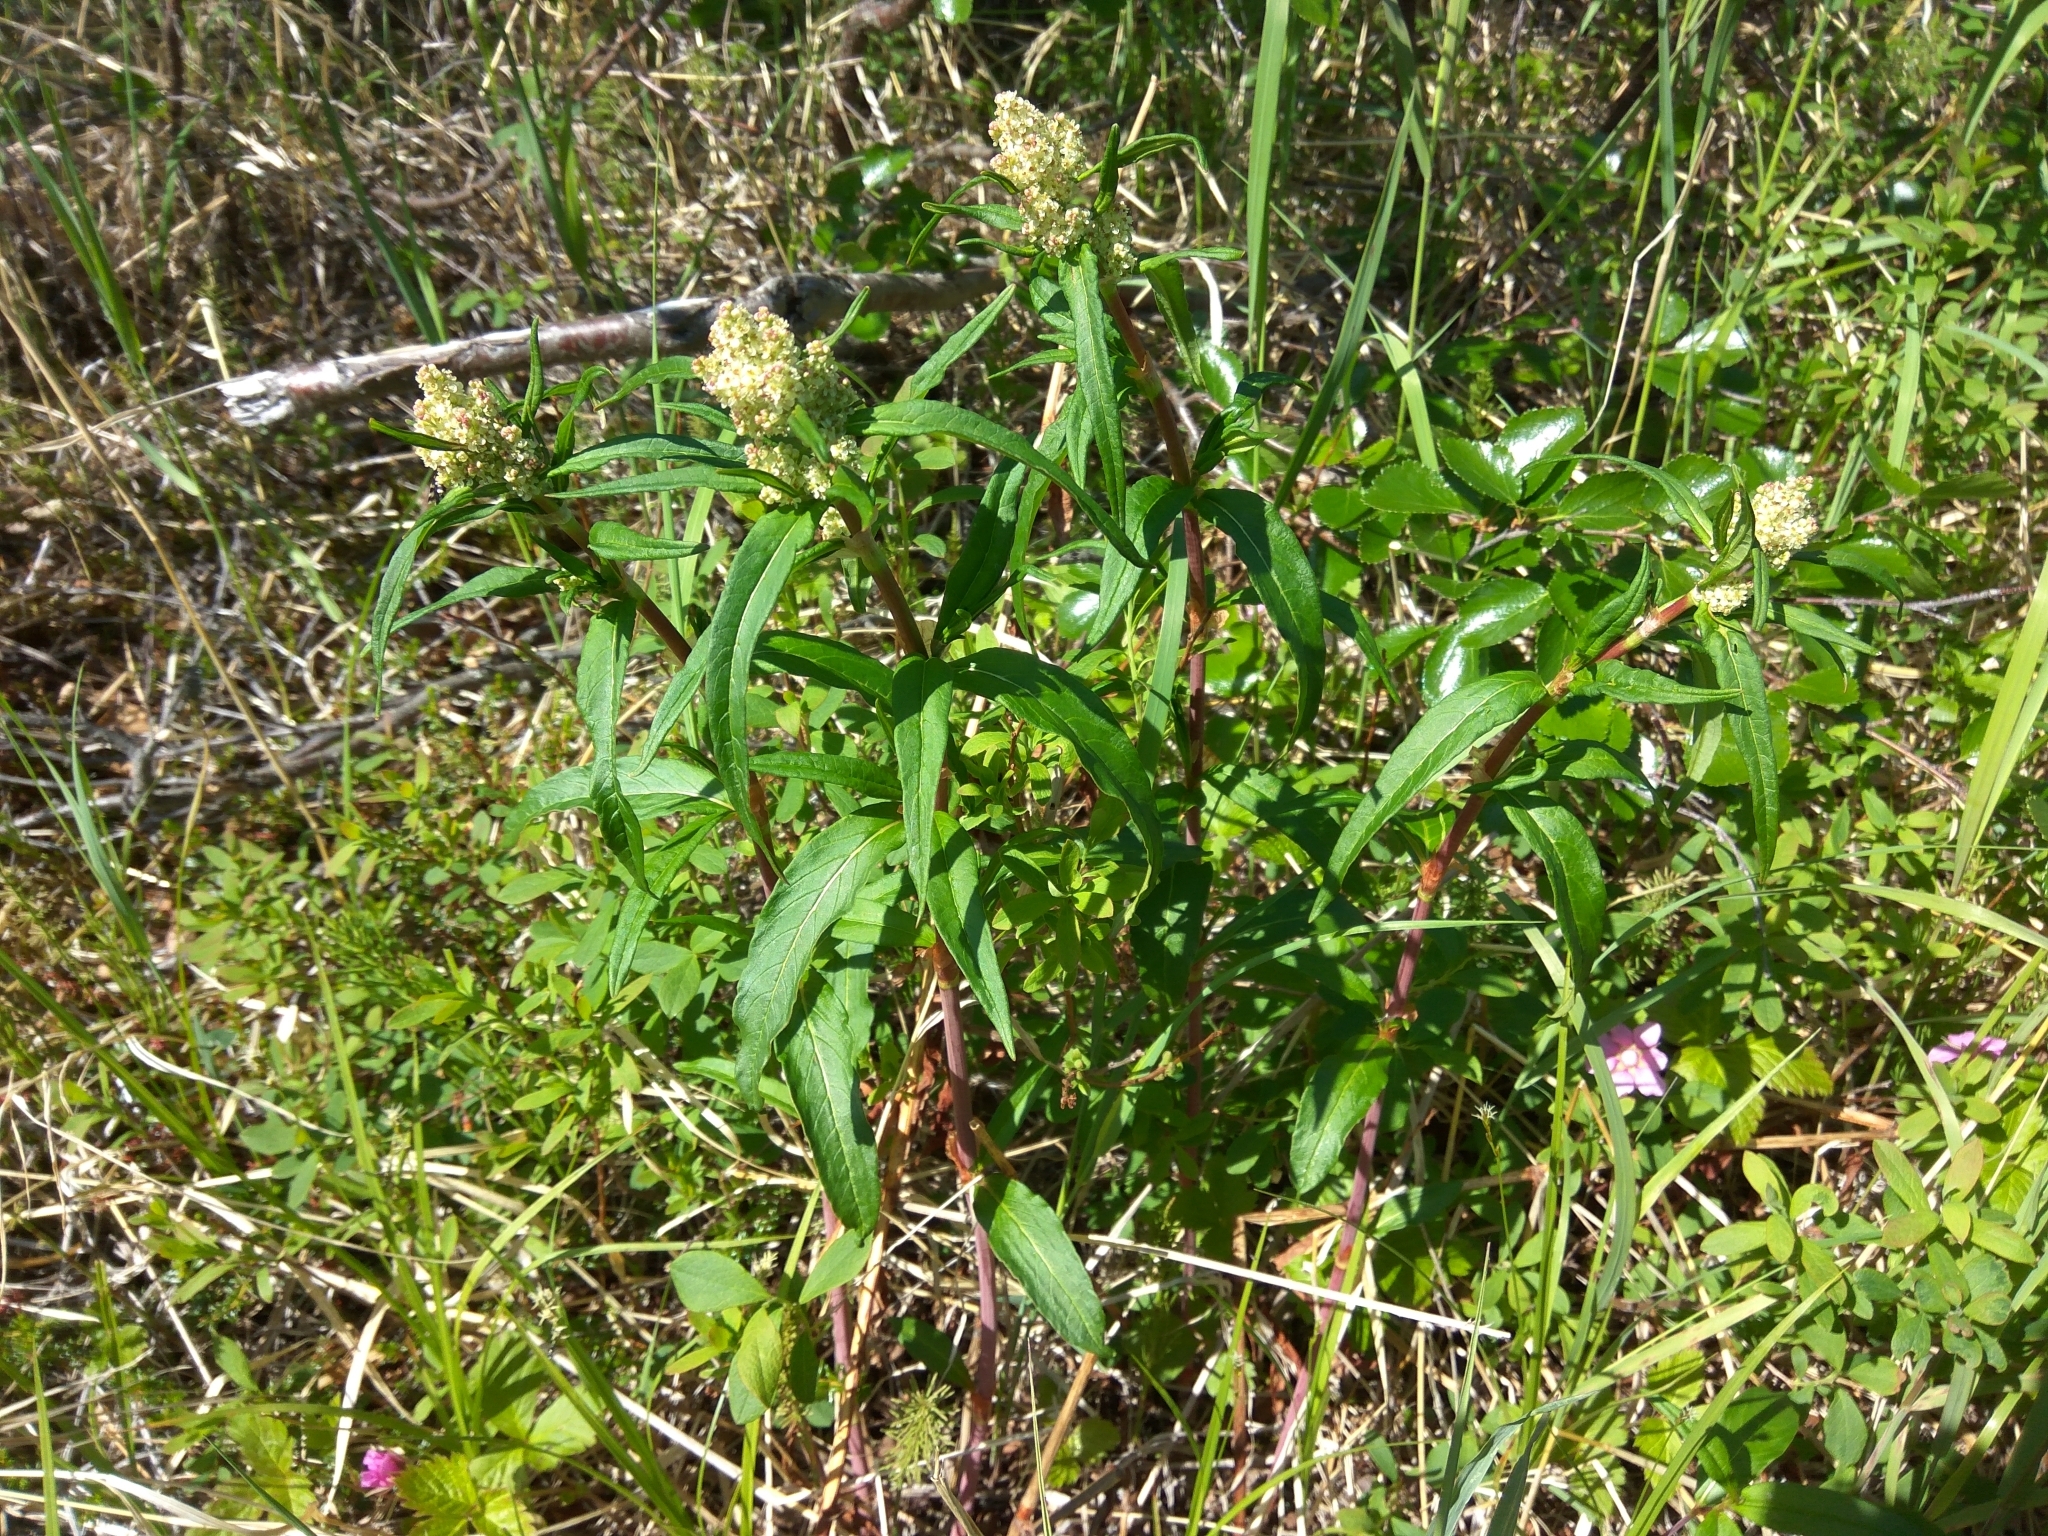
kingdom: Plantae
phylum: Tracheophyta
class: Magnoliopsida
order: Caryophyllales
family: Polygonaceae
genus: Koenigia
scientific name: Koenigia tripterocarpa
